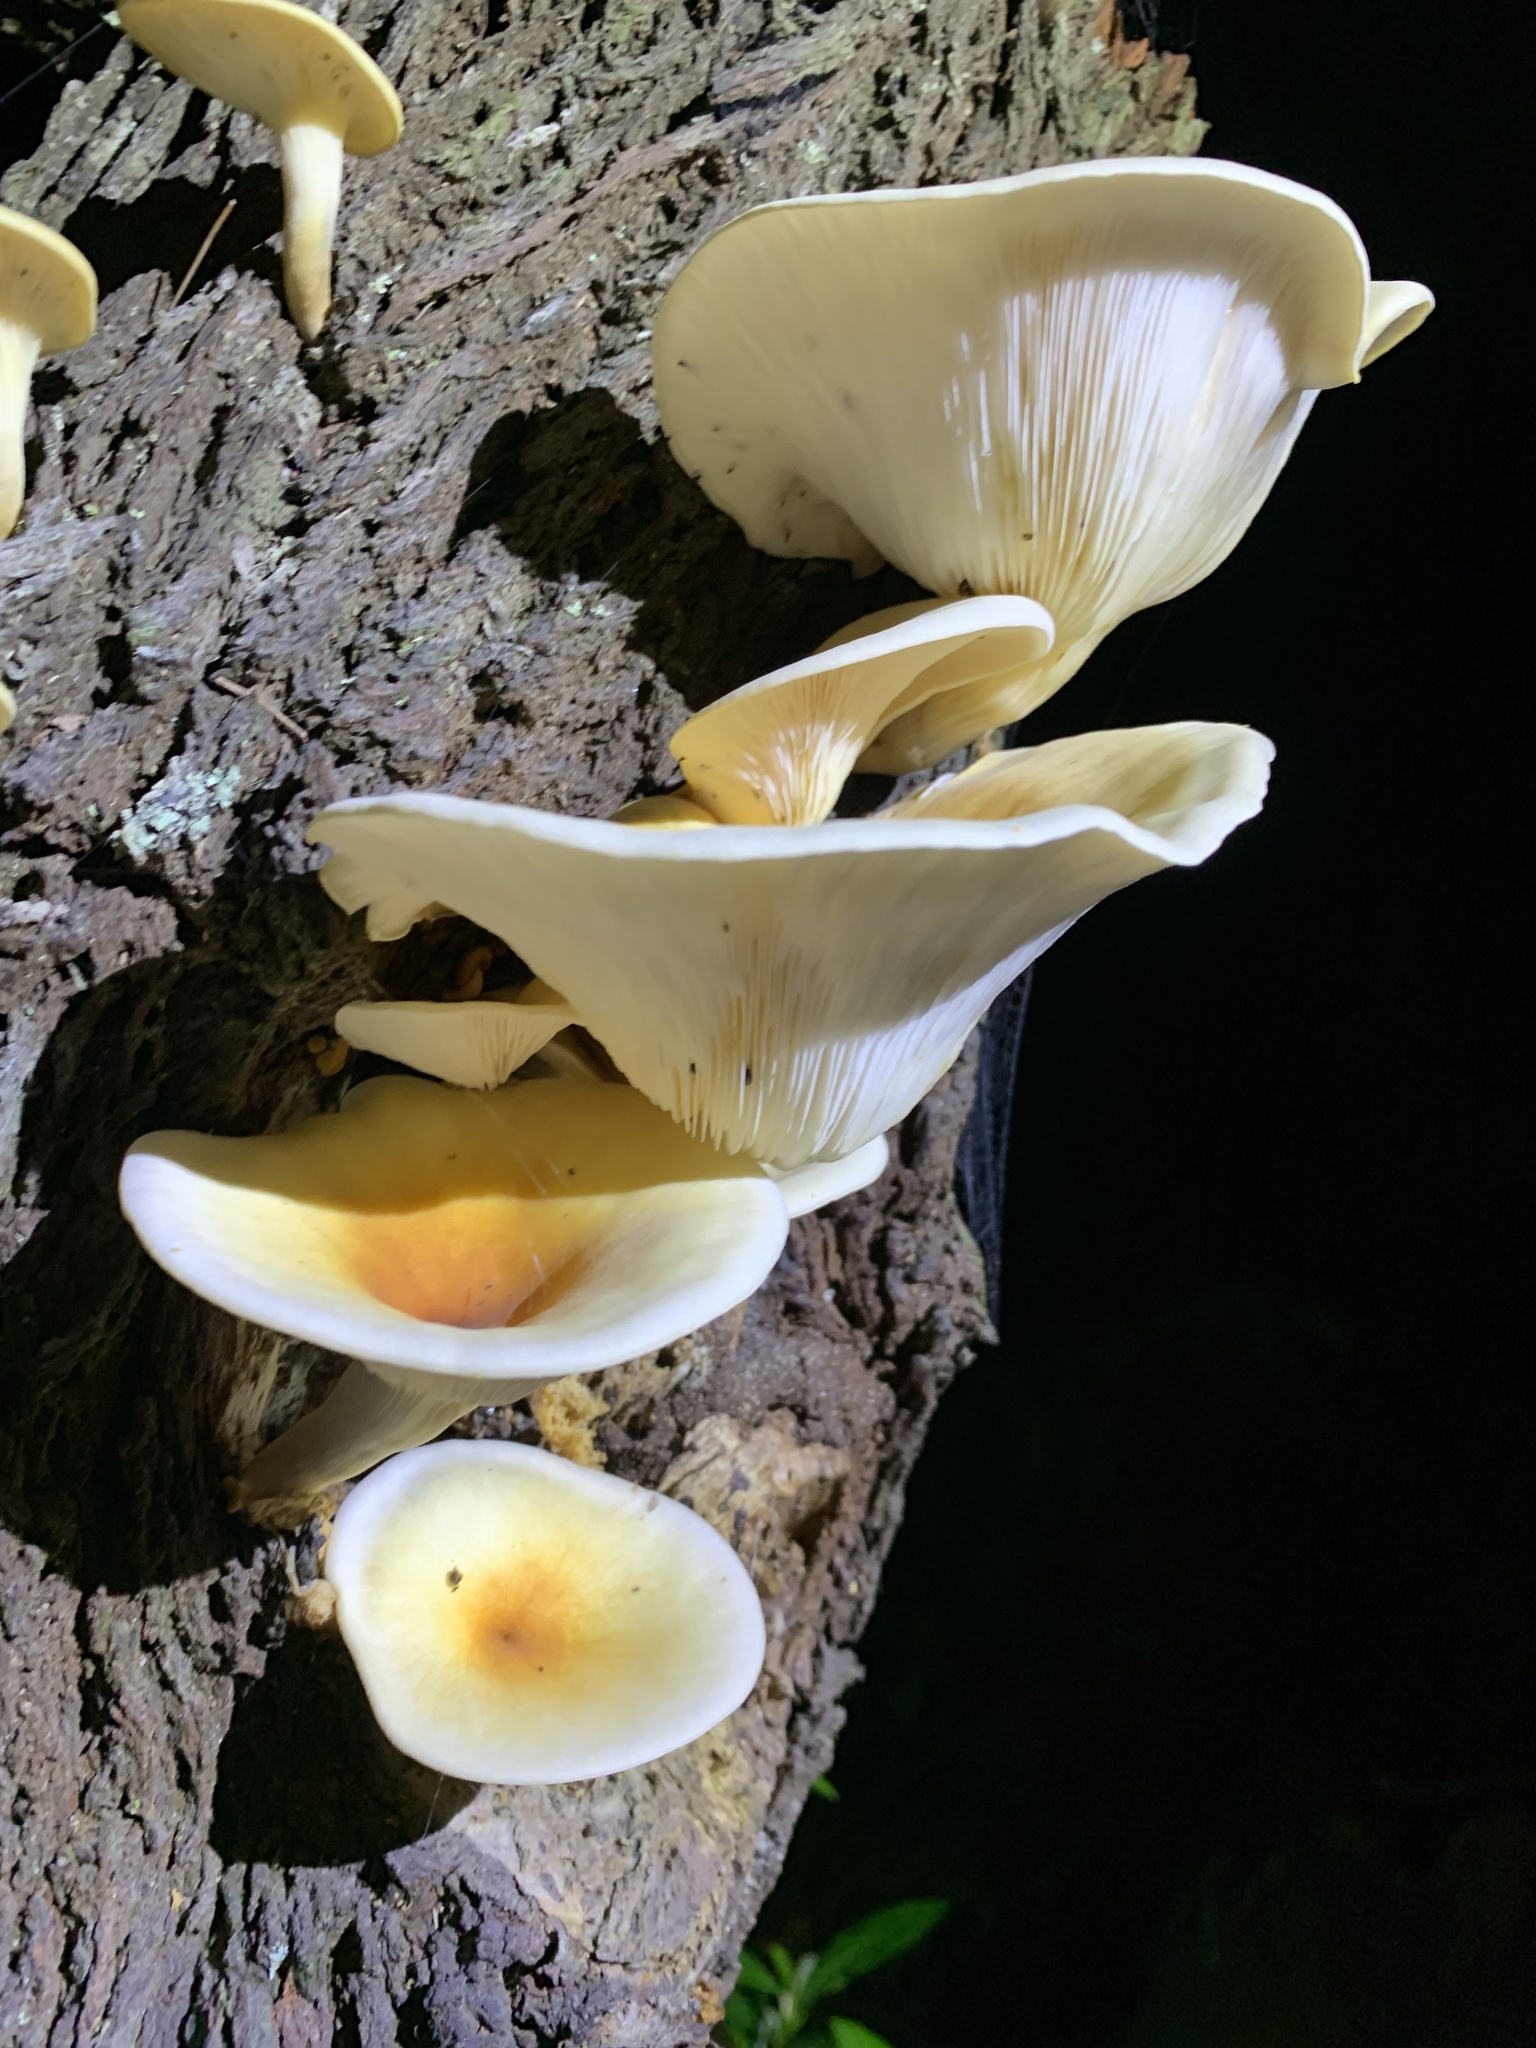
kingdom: Fungi
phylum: Basidiomycota
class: Agaricomycetes
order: Agaricales
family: Omphalotaceae
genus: Omphalotus
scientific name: Omphalotus nidiformis
